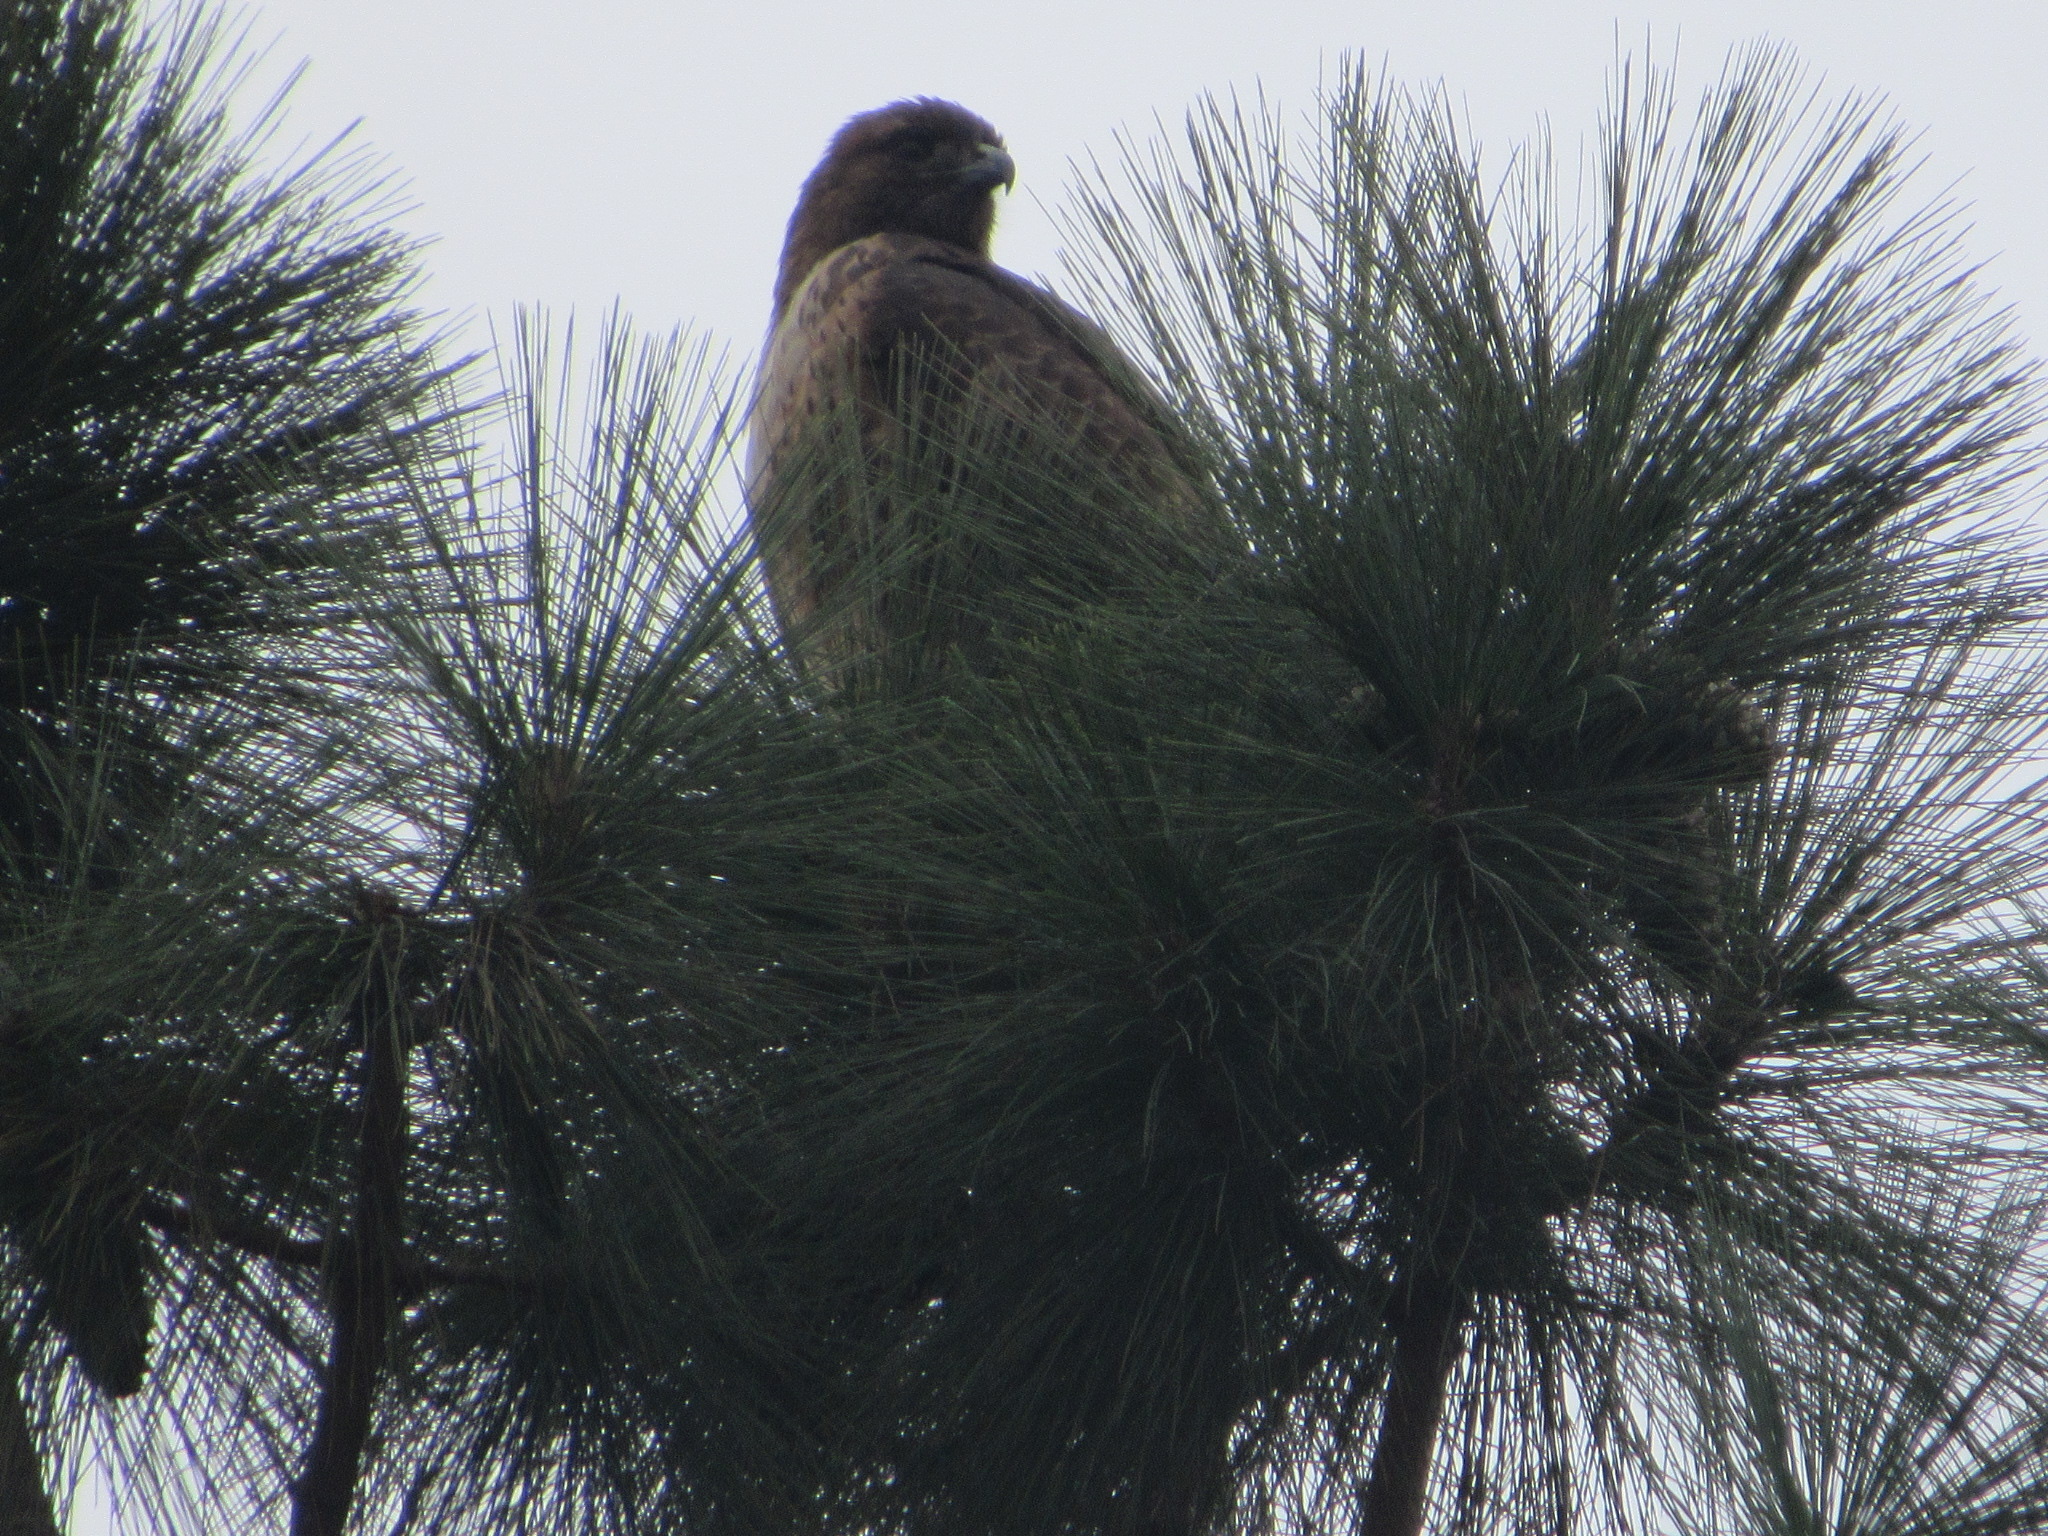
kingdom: Animalia
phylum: Chordata
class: Aves
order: Accipitriformes
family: Accipitridae
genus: Buteo
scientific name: Buteo jamaicensis
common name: Red-tailed hawk
